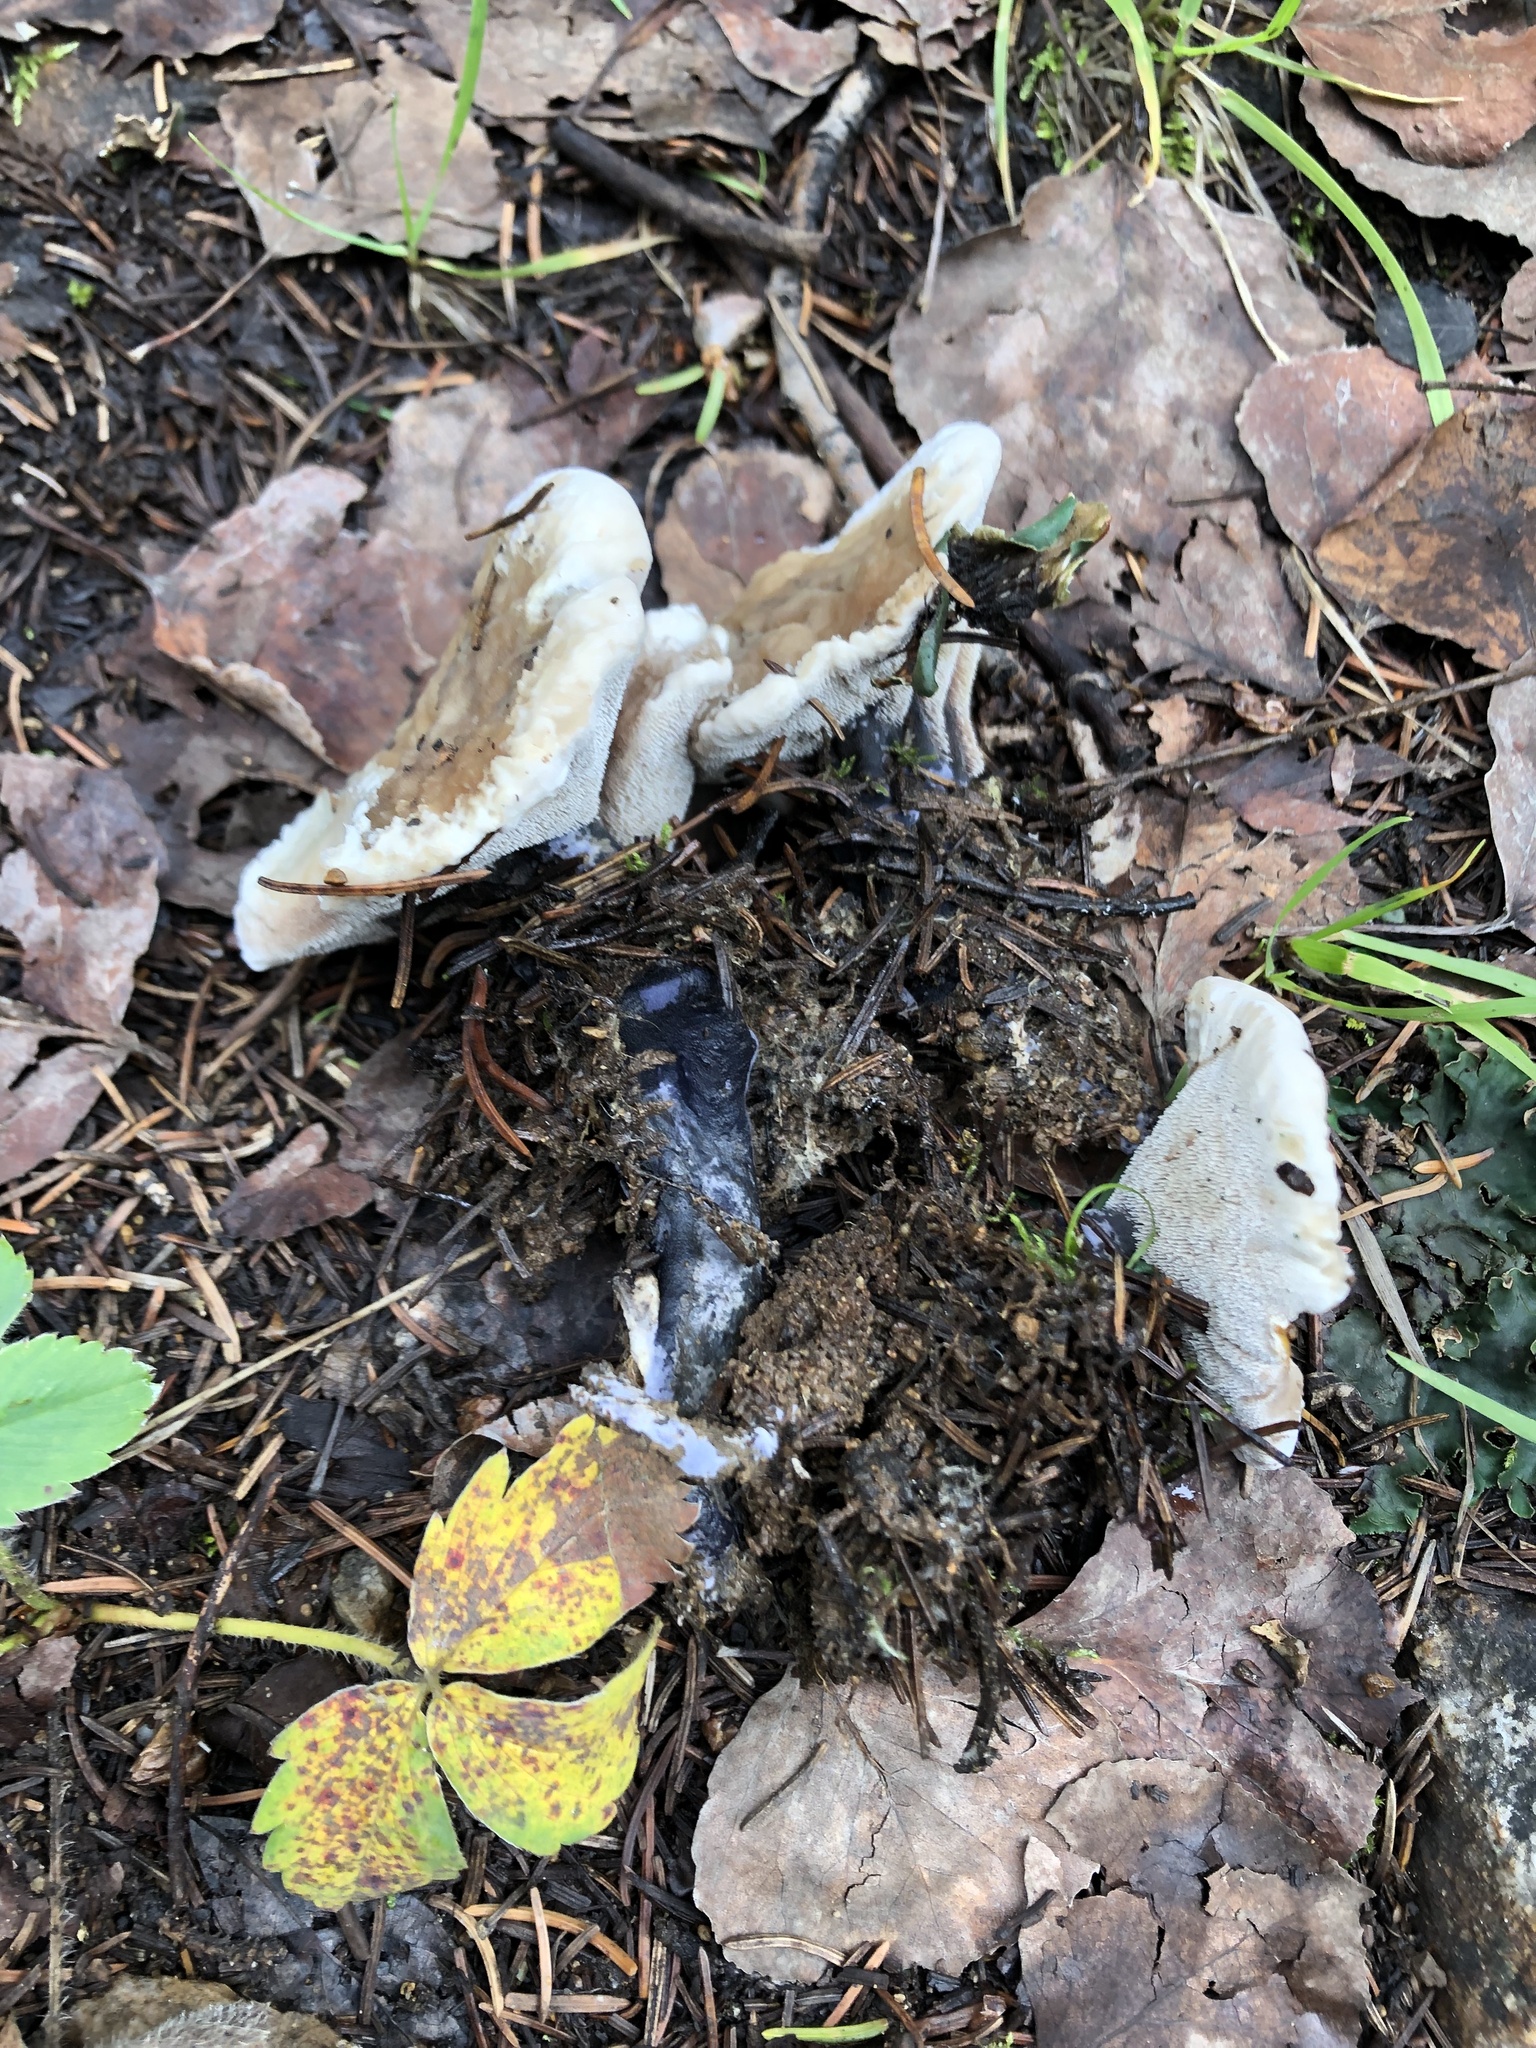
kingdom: Fungi
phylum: Basidiomycota
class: Agaricomycetes
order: Thelephorales
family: Bankeraceae
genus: Hydnellum
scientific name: Hydnellum suaveolens
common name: Sweetgrass hydnellum
